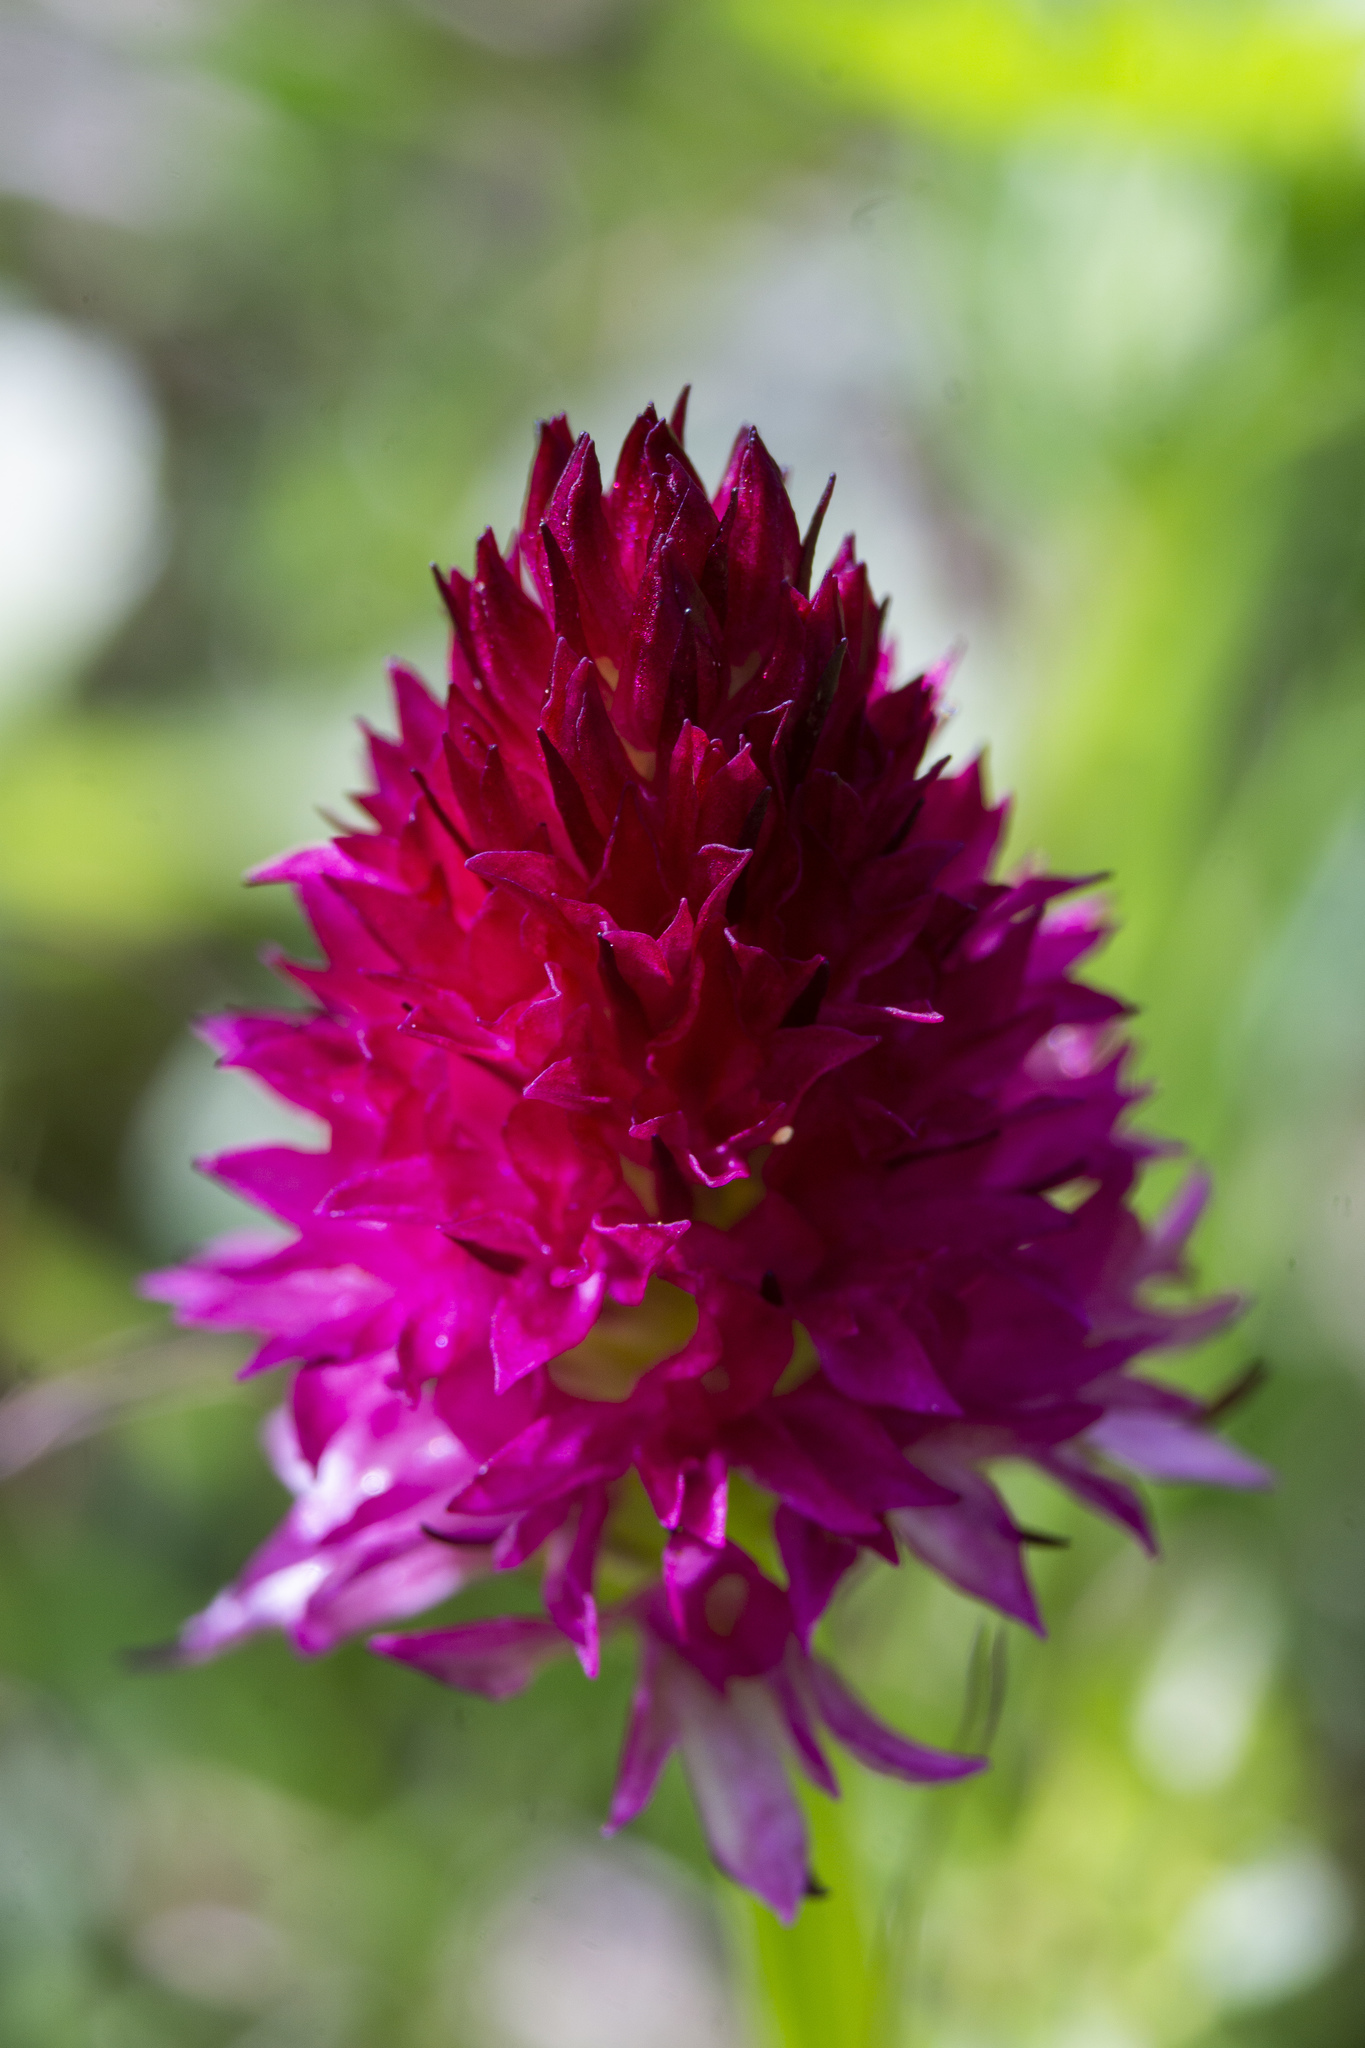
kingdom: Plantae
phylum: Tracheophyta
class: Liliopsida
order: Asparagales
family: Orchidaceae
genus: Gymnadenia
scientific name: Gymnadenia miniata
